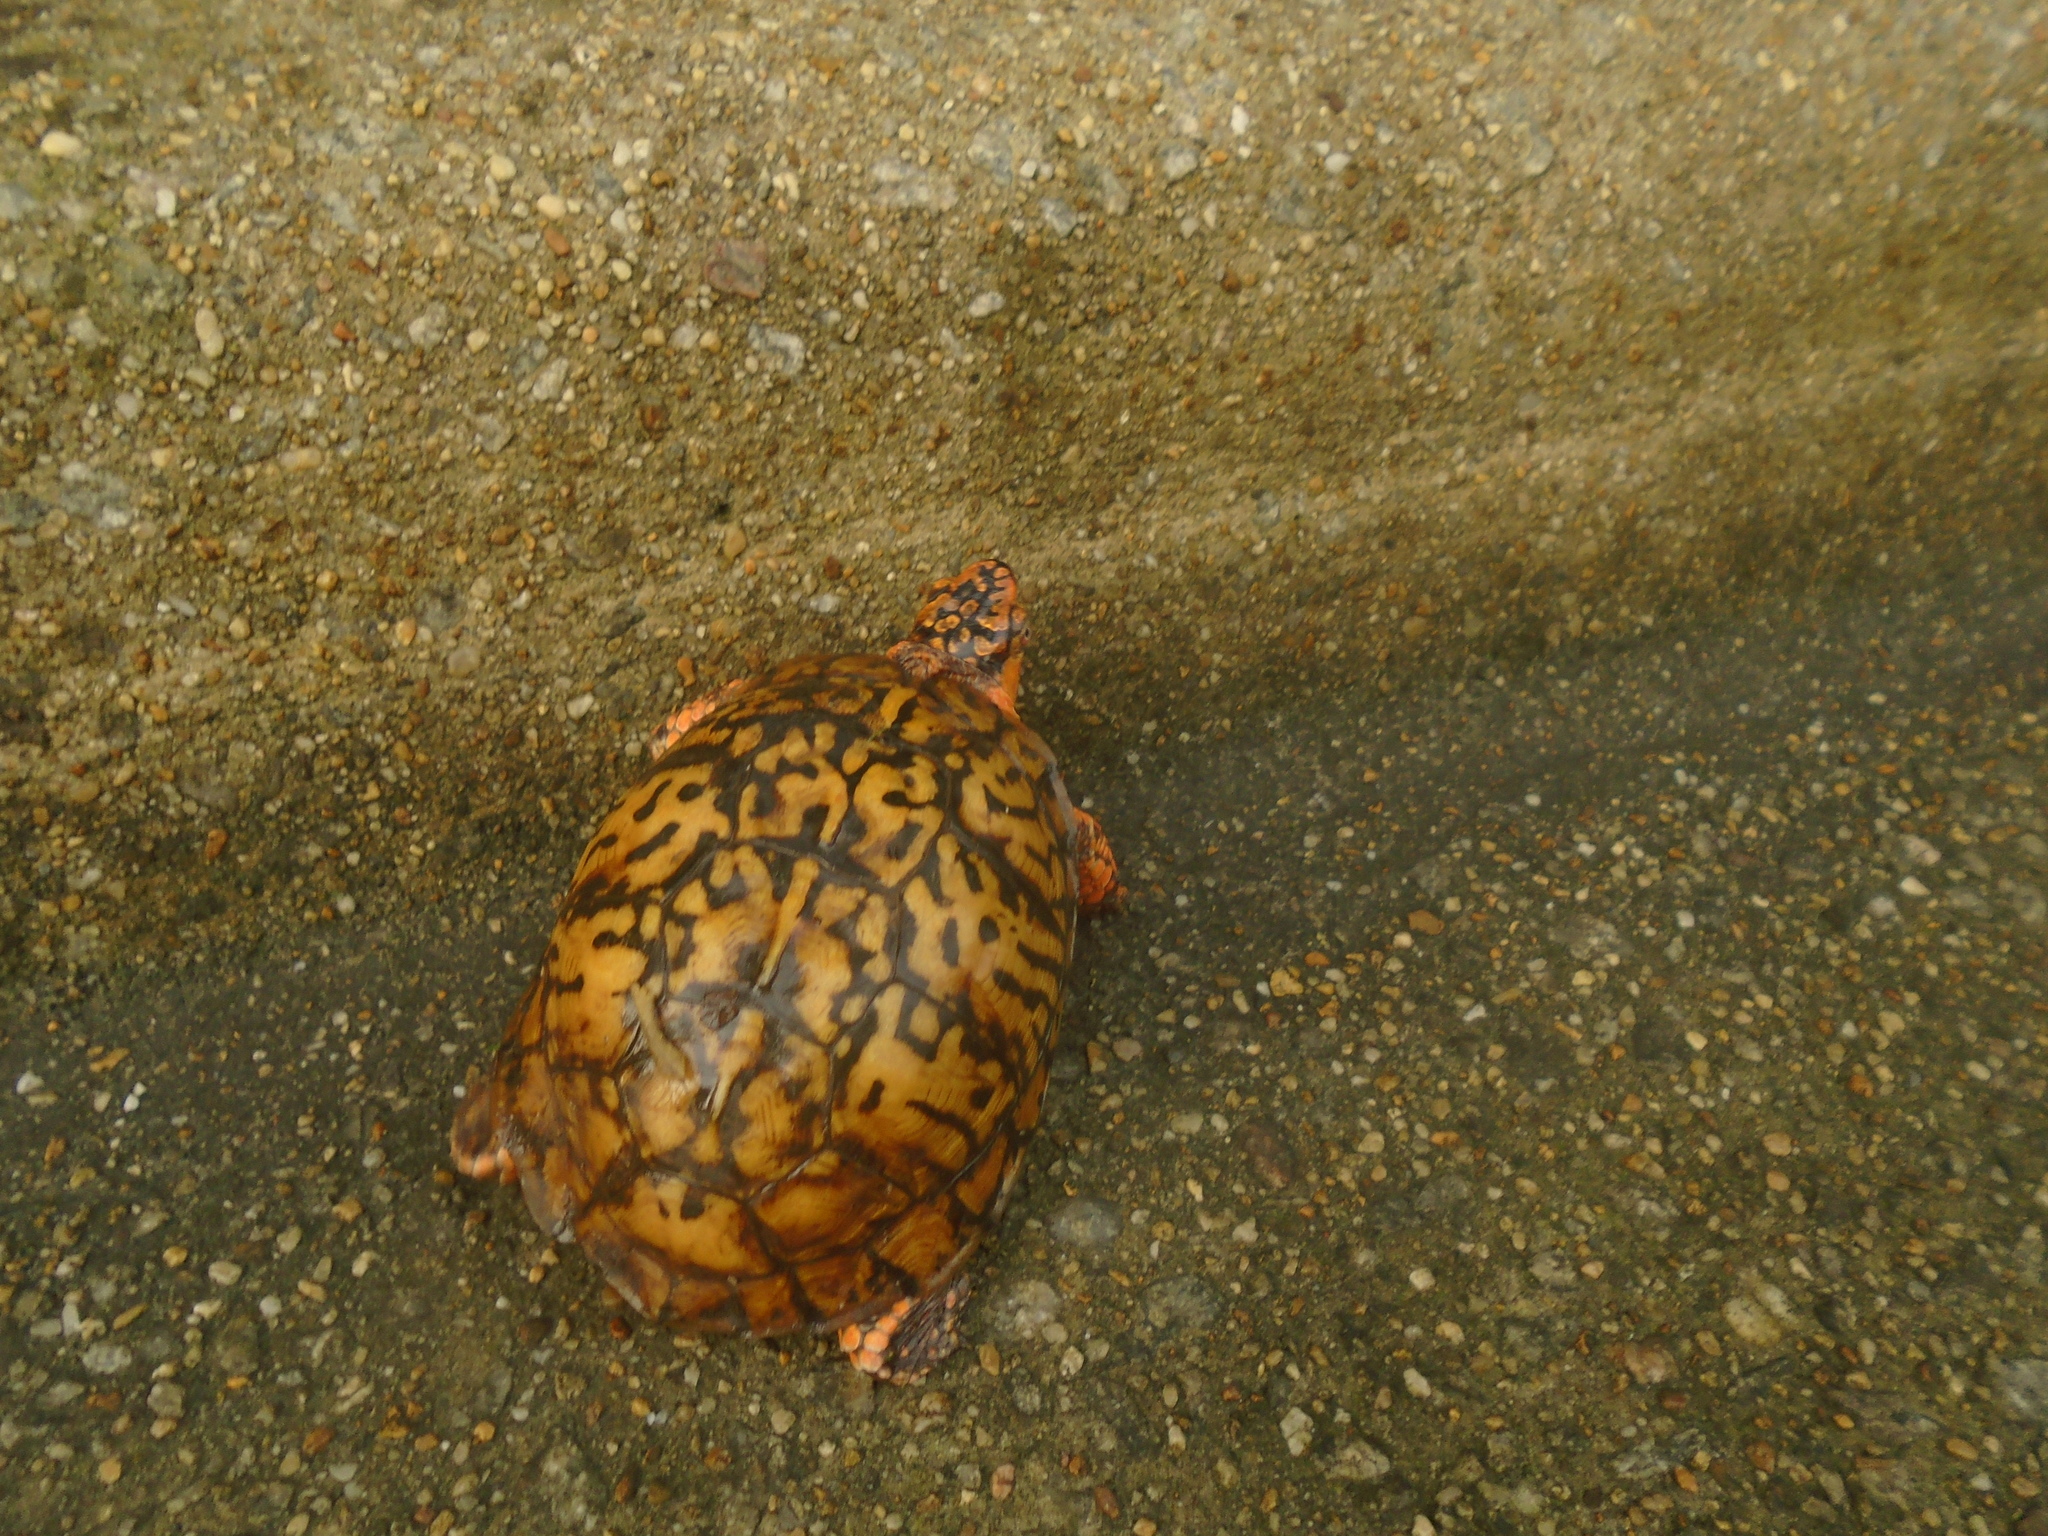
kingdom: Animalia
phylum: Chordata
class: Testudines
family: Emydidae
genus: Terrapene
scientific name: Terrapene carolina
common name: Common box turtle
